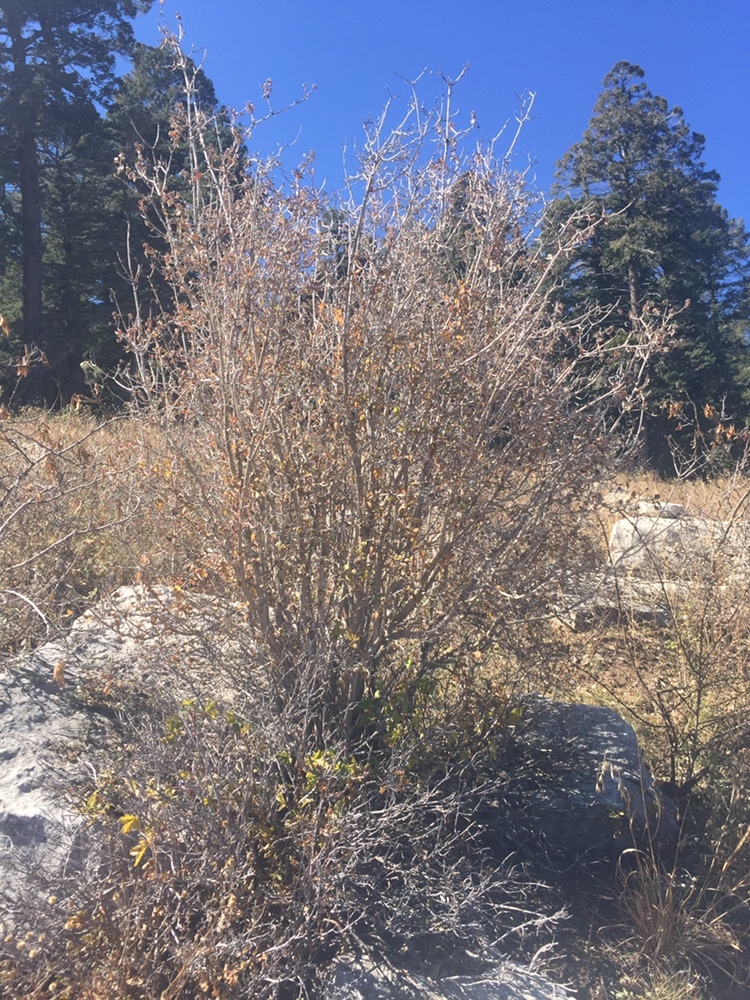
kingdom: Plantae
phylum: Tracheophyta
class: Magnoliopsida
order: Cornales
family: Hydrangeaceae
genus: Jamesia
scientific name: Jamesia americana
